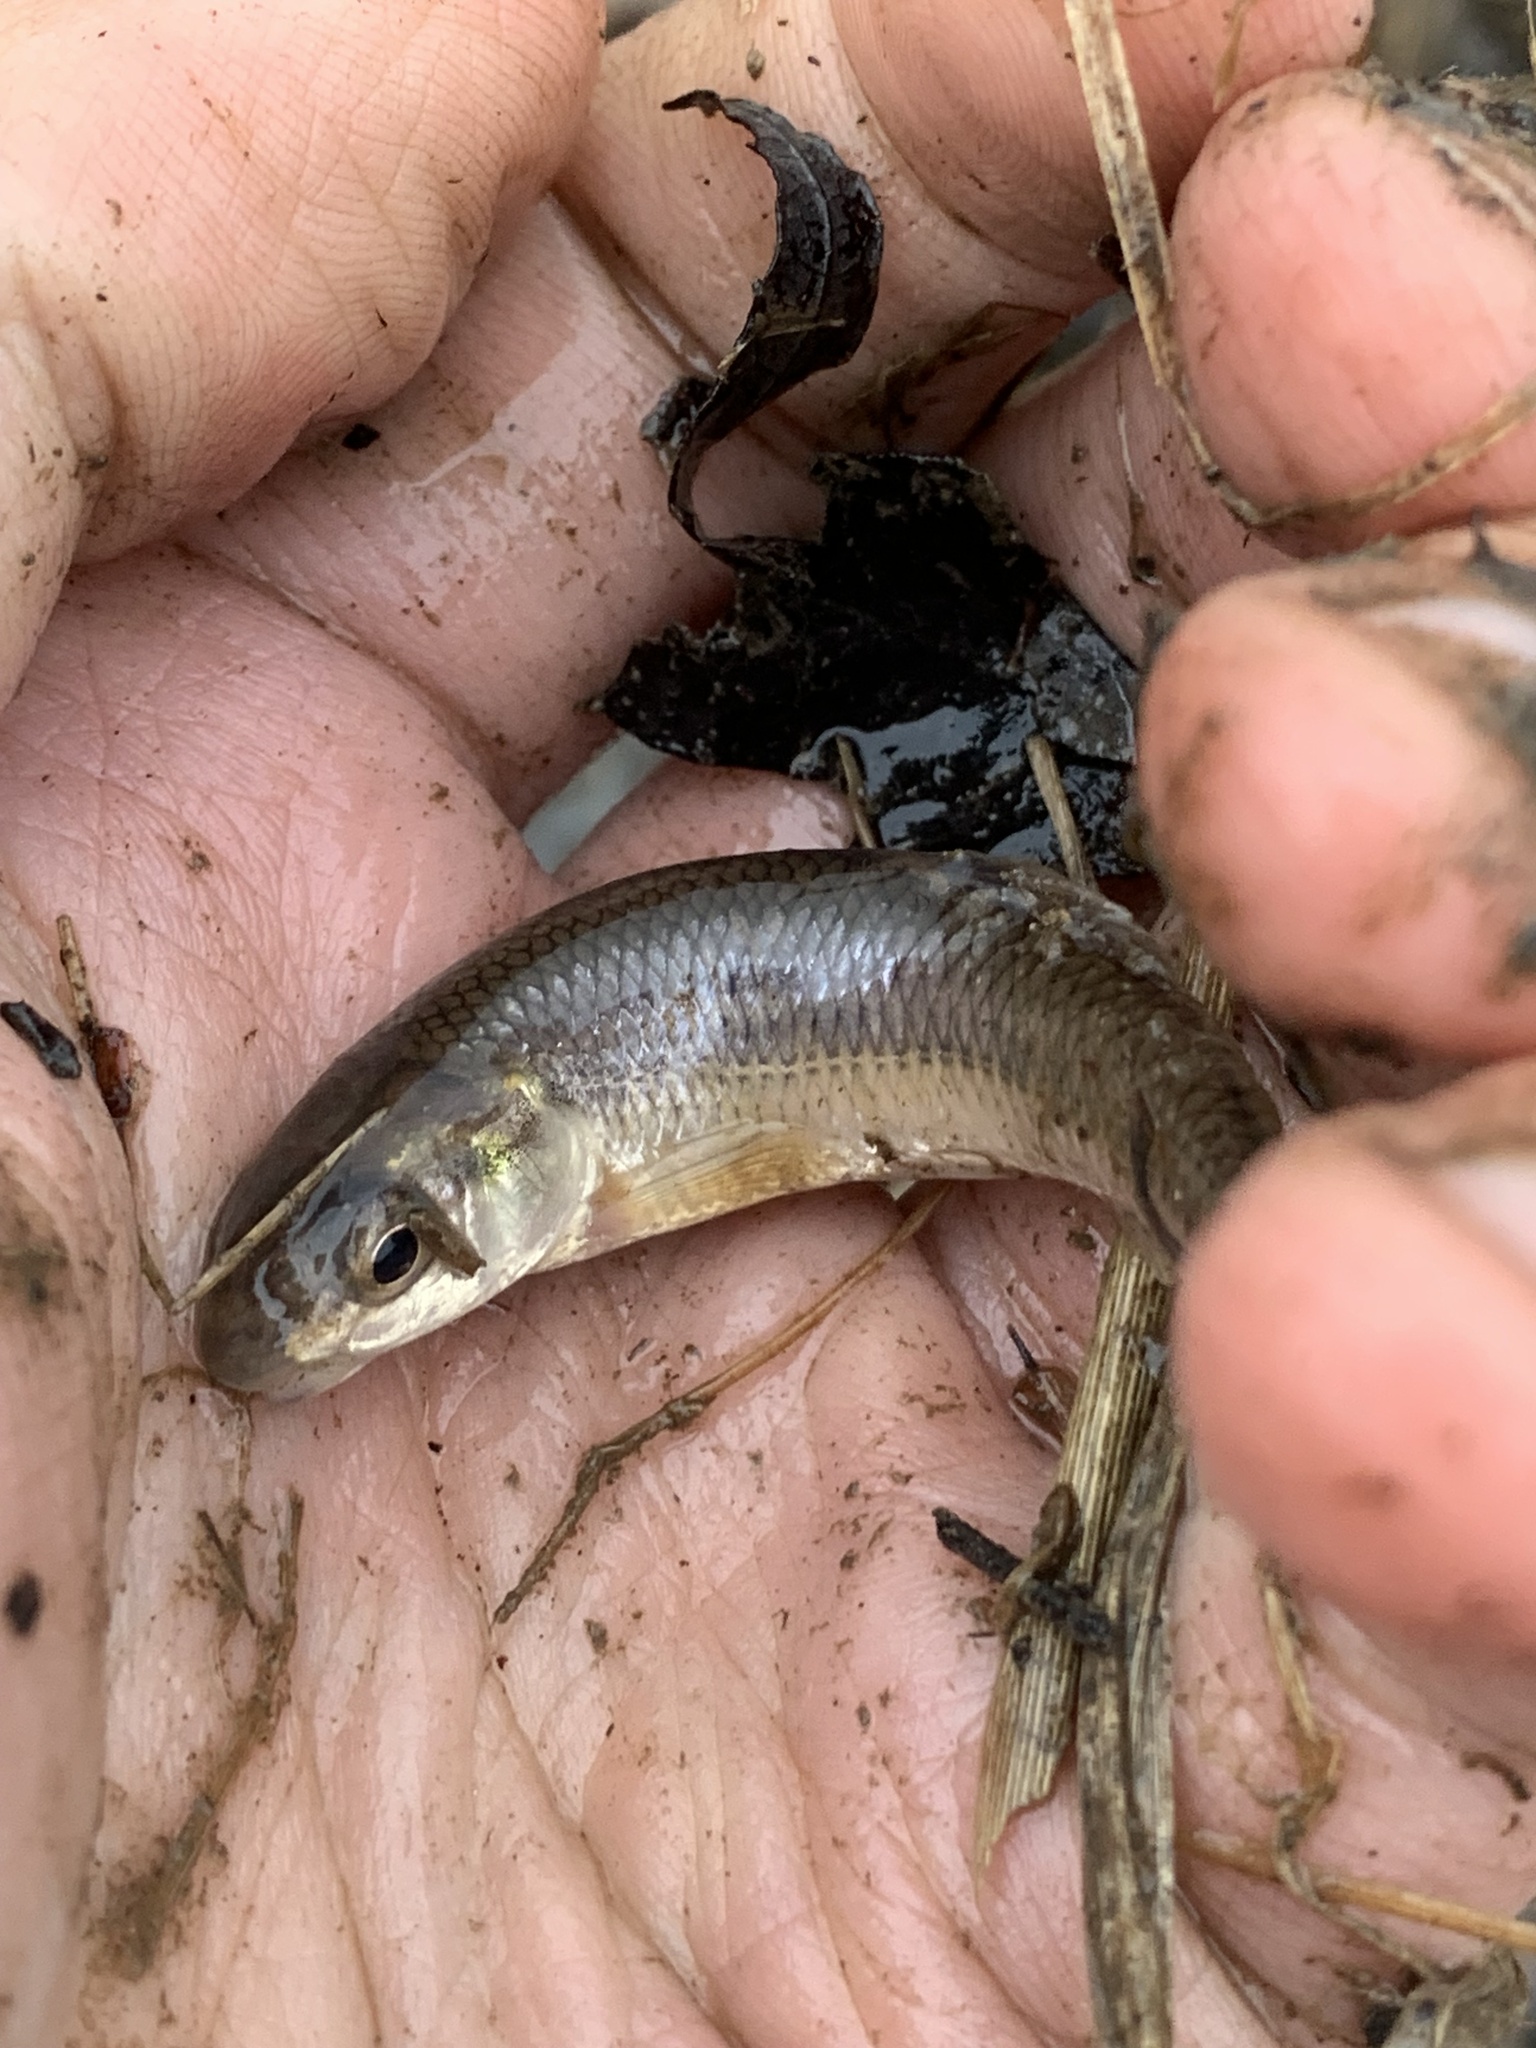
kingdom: Animalia
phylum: Chordata
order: Cypriniformes
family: Cyprinidae
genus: Pimephales
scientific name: Pimephales notatus
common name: Bluntnose minnow
